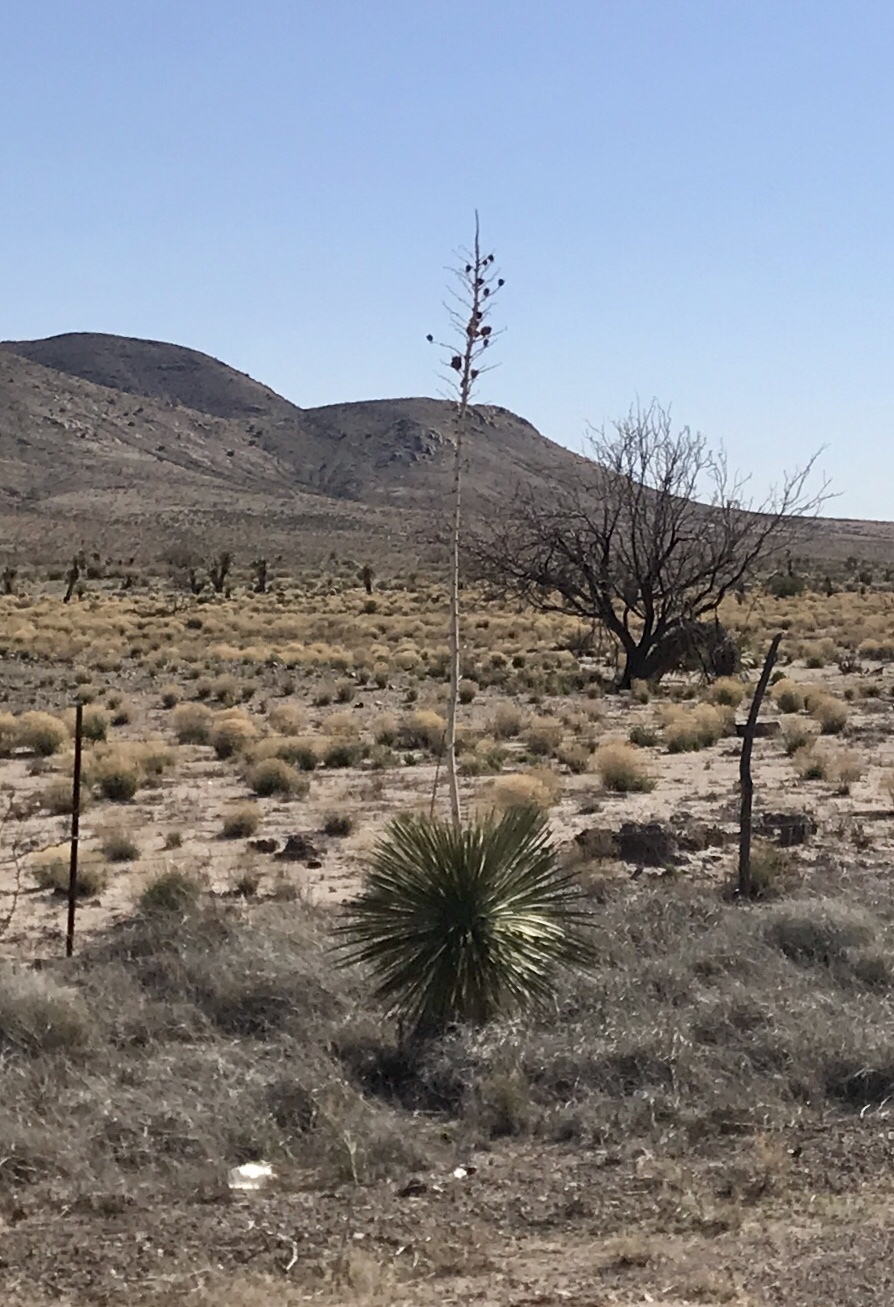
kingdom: Plantae
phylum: Tracheophyta
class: Liliopsida
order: Asparagales
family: Asparagaceae
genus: Yucca
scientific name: Yucca elata
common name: Palmella
